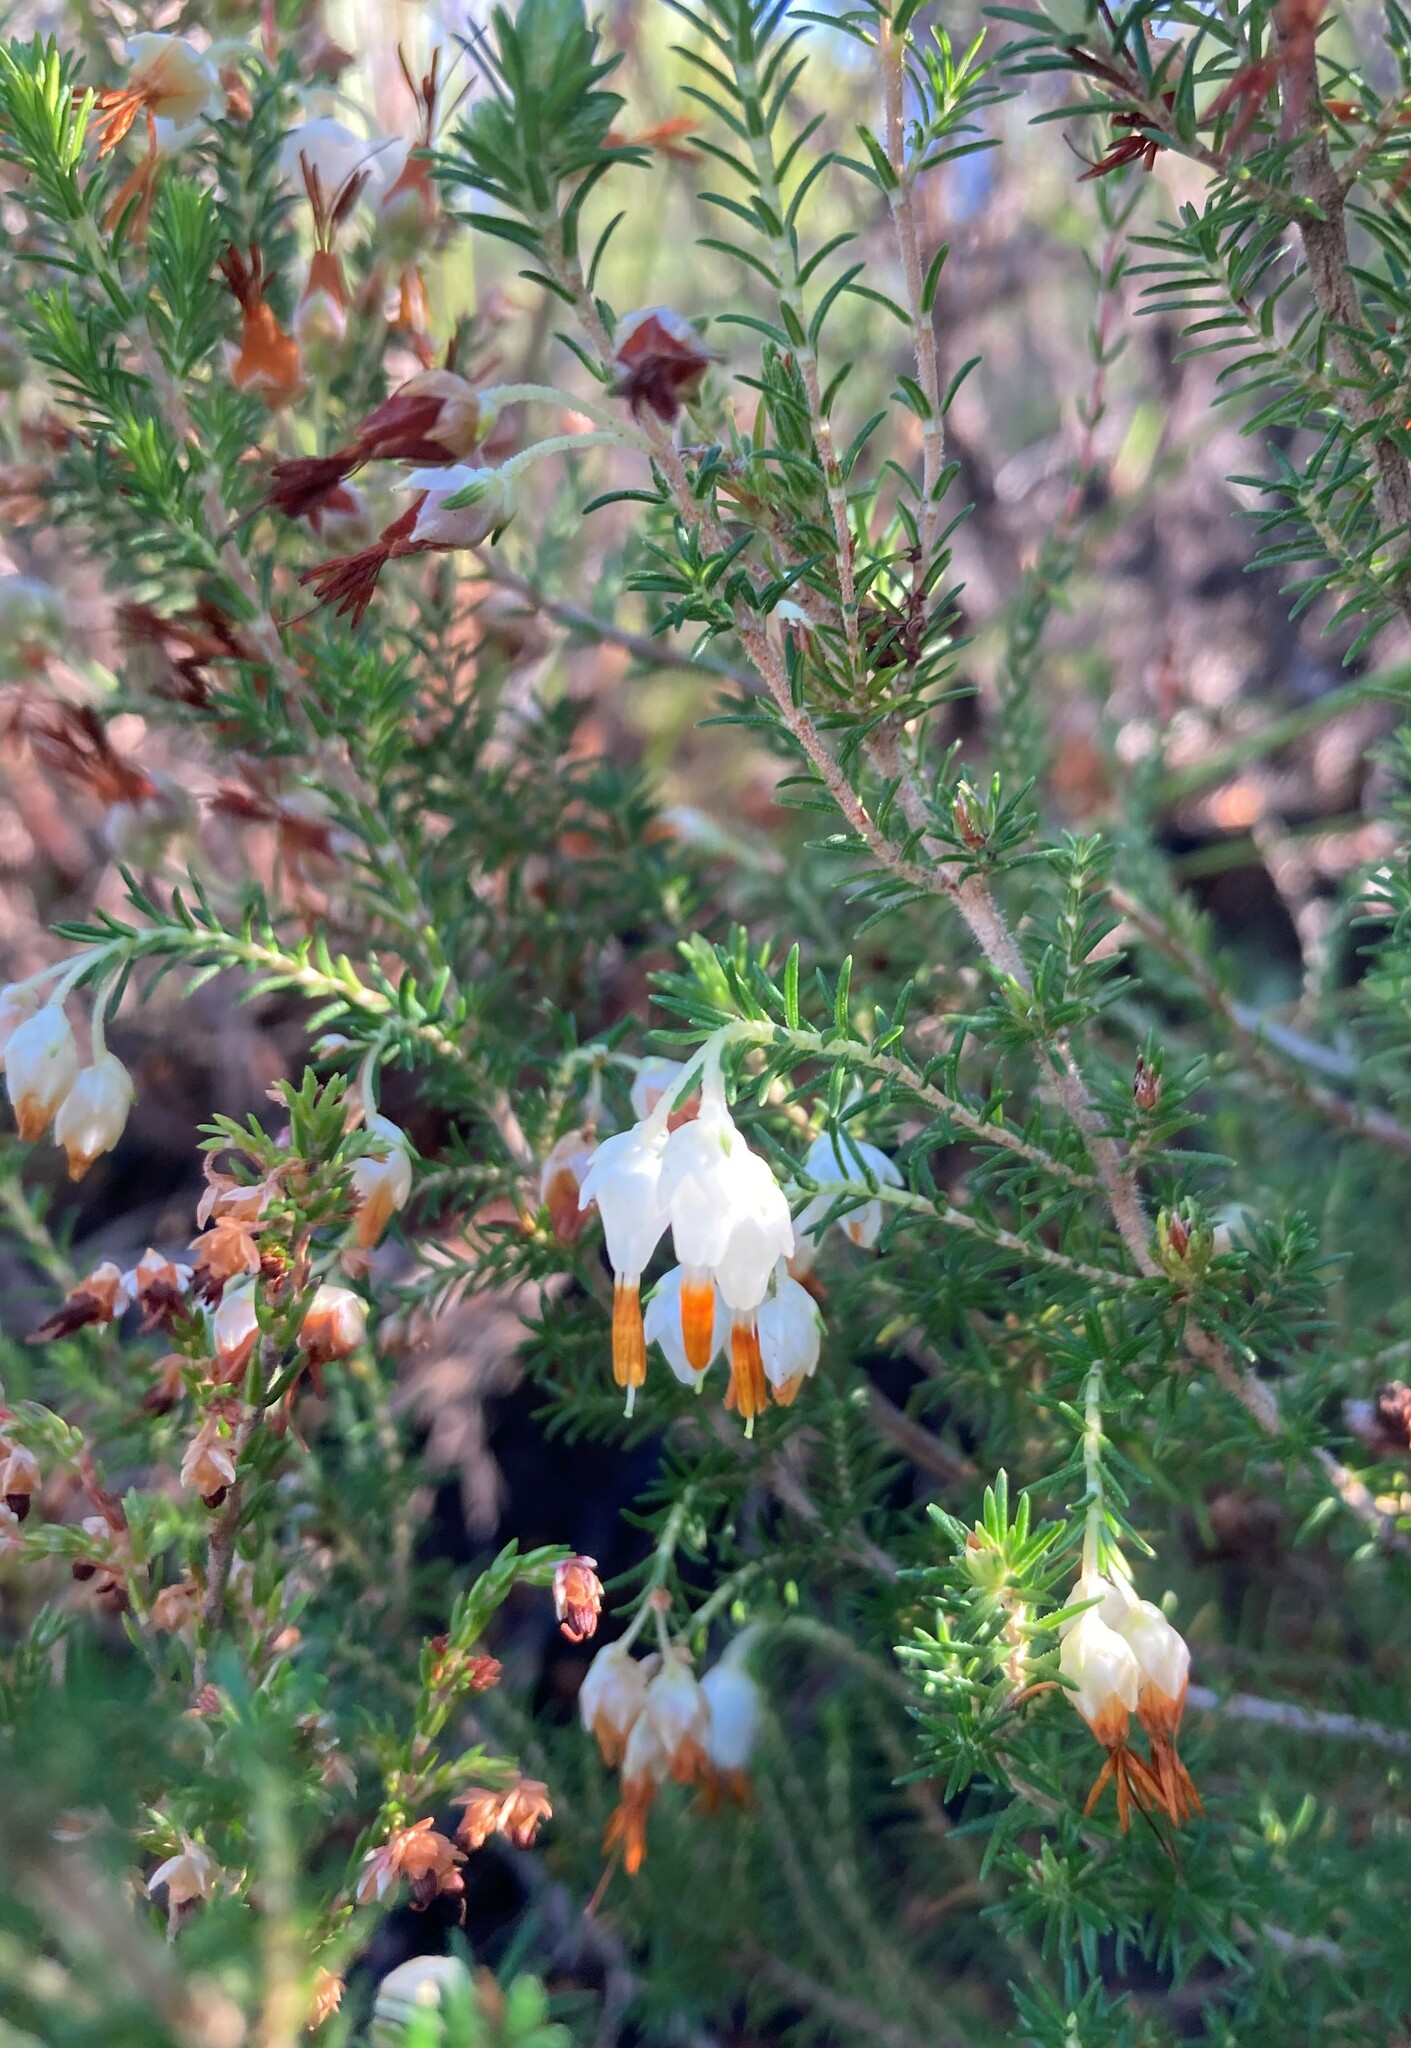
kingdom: Plantae
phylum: Tracheophyta
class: Magnoliopsida
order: Ericales
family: Ericaceae
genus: Erica
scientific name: Erica intermedia
